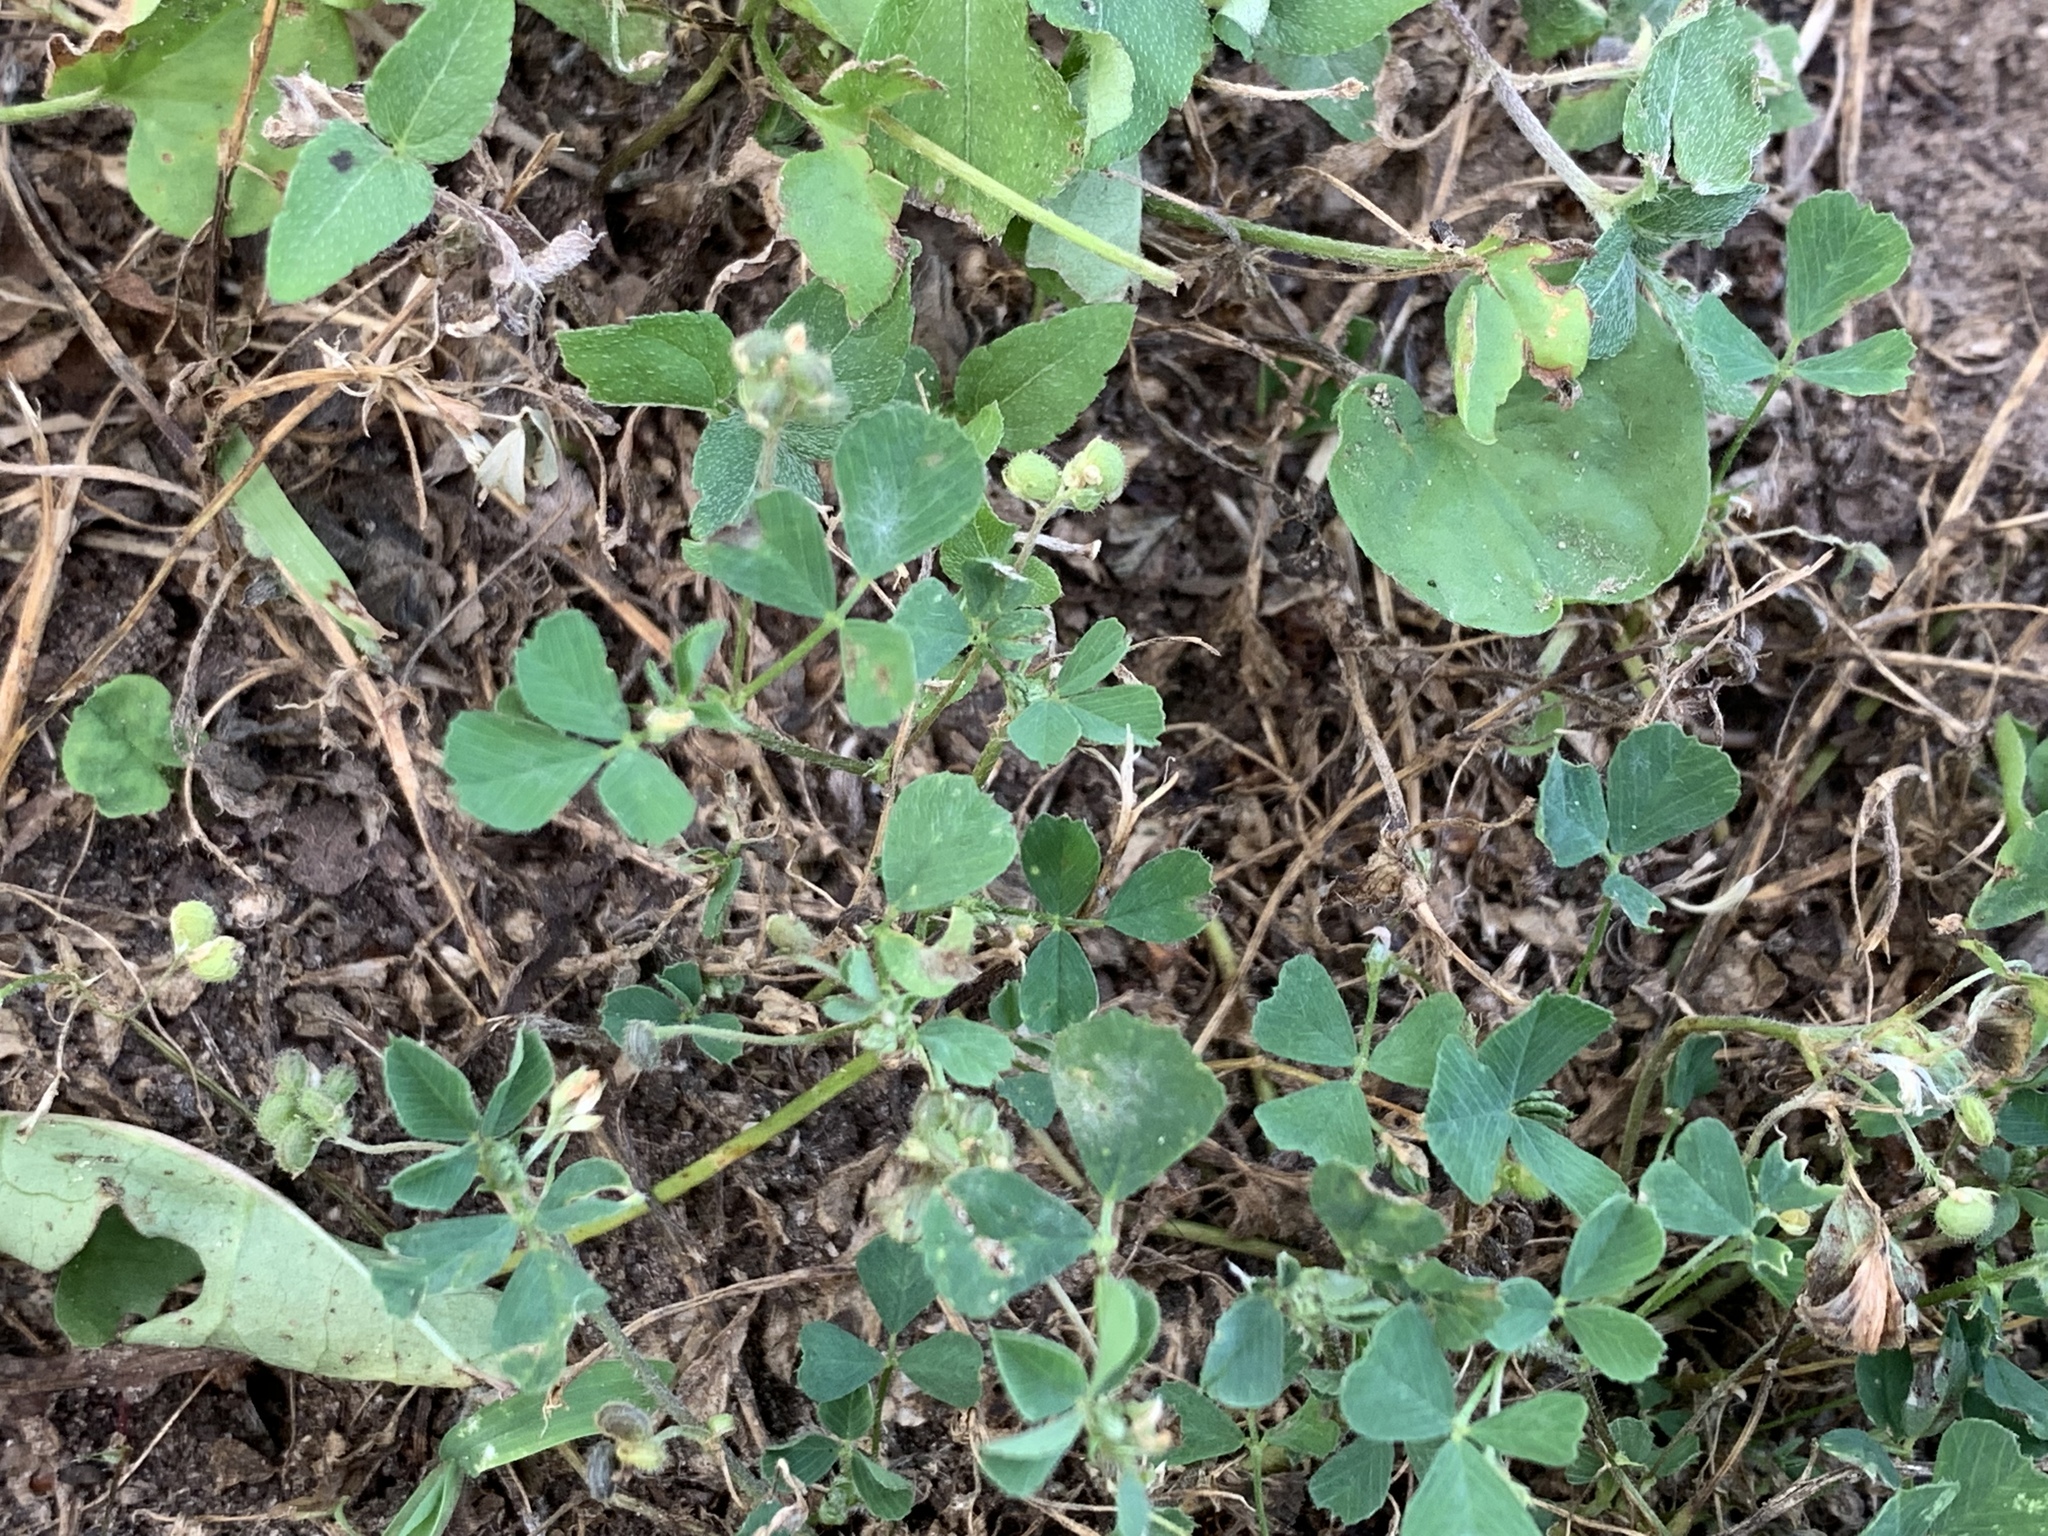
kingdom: Plantae
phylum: Tracheophyta
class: Magnoliopsida
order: Fabales
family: Fabaceae
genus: Medicago
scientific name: Medicago lupulina
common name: Black medick
